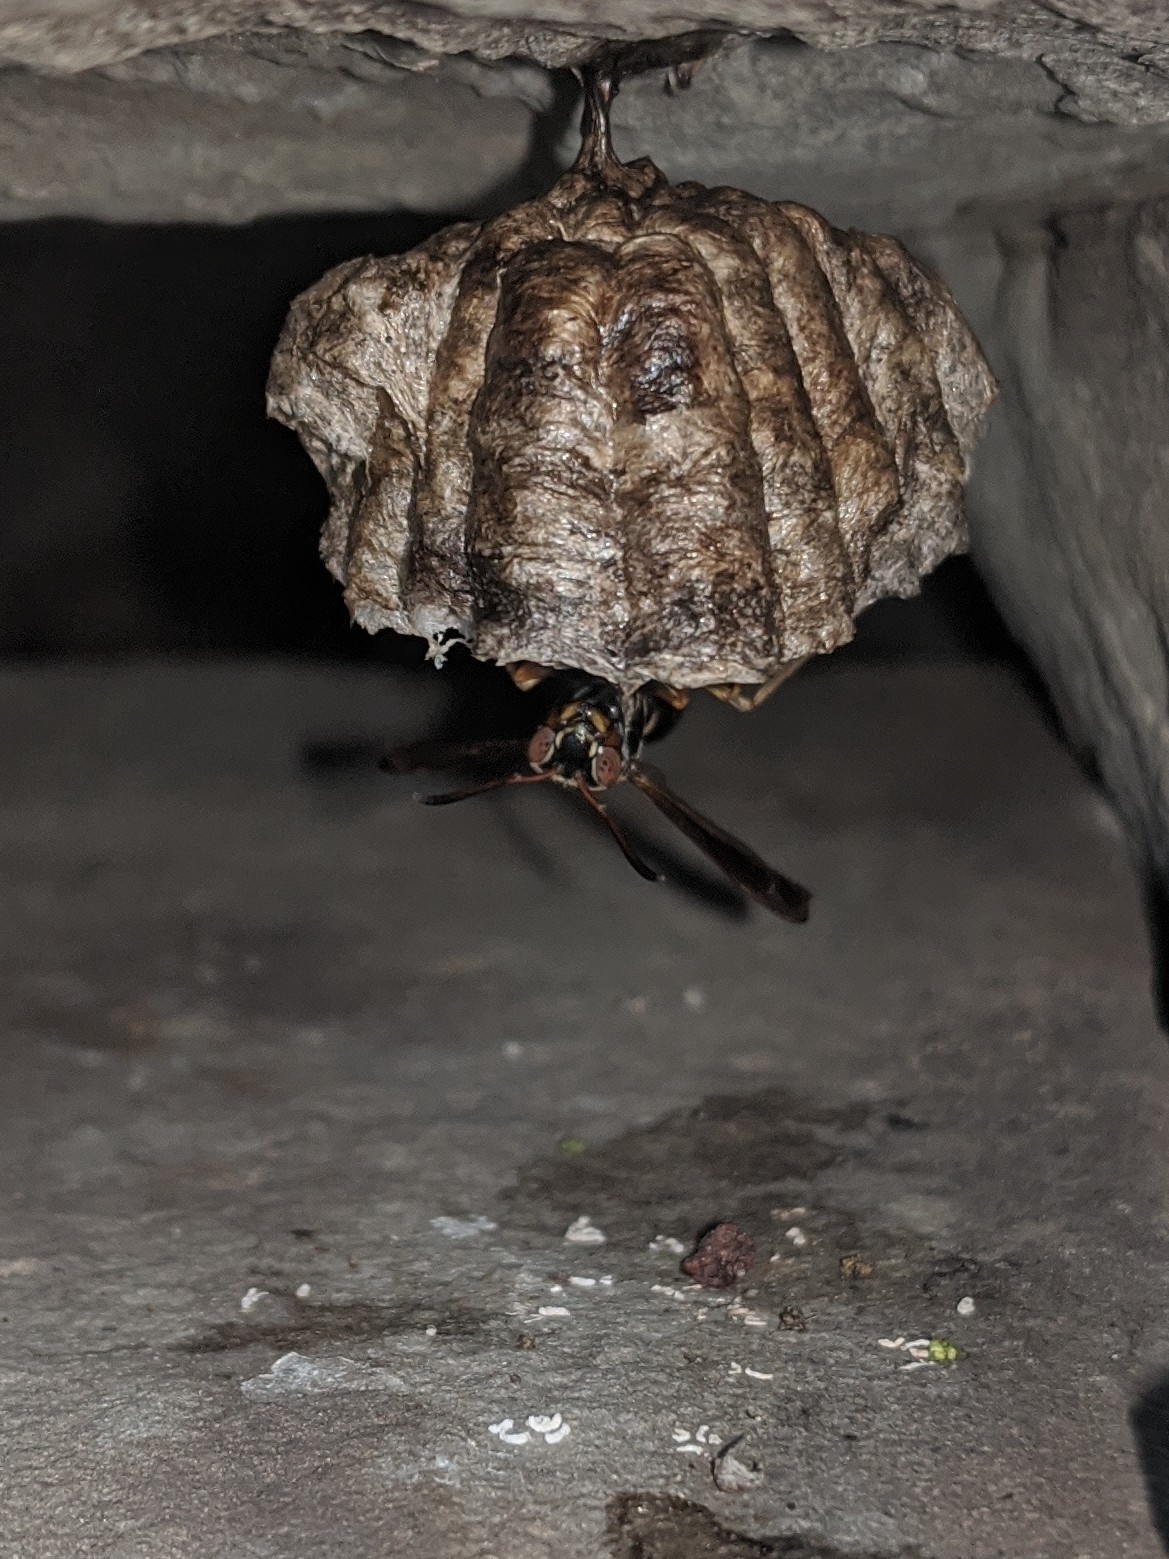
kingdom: Animalia
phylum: Arthropoda
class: Insecta
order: Hymenoptera
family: Eumenidae
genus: Polistes
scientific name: Polistes fuscatus
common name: Dark paper wasp
